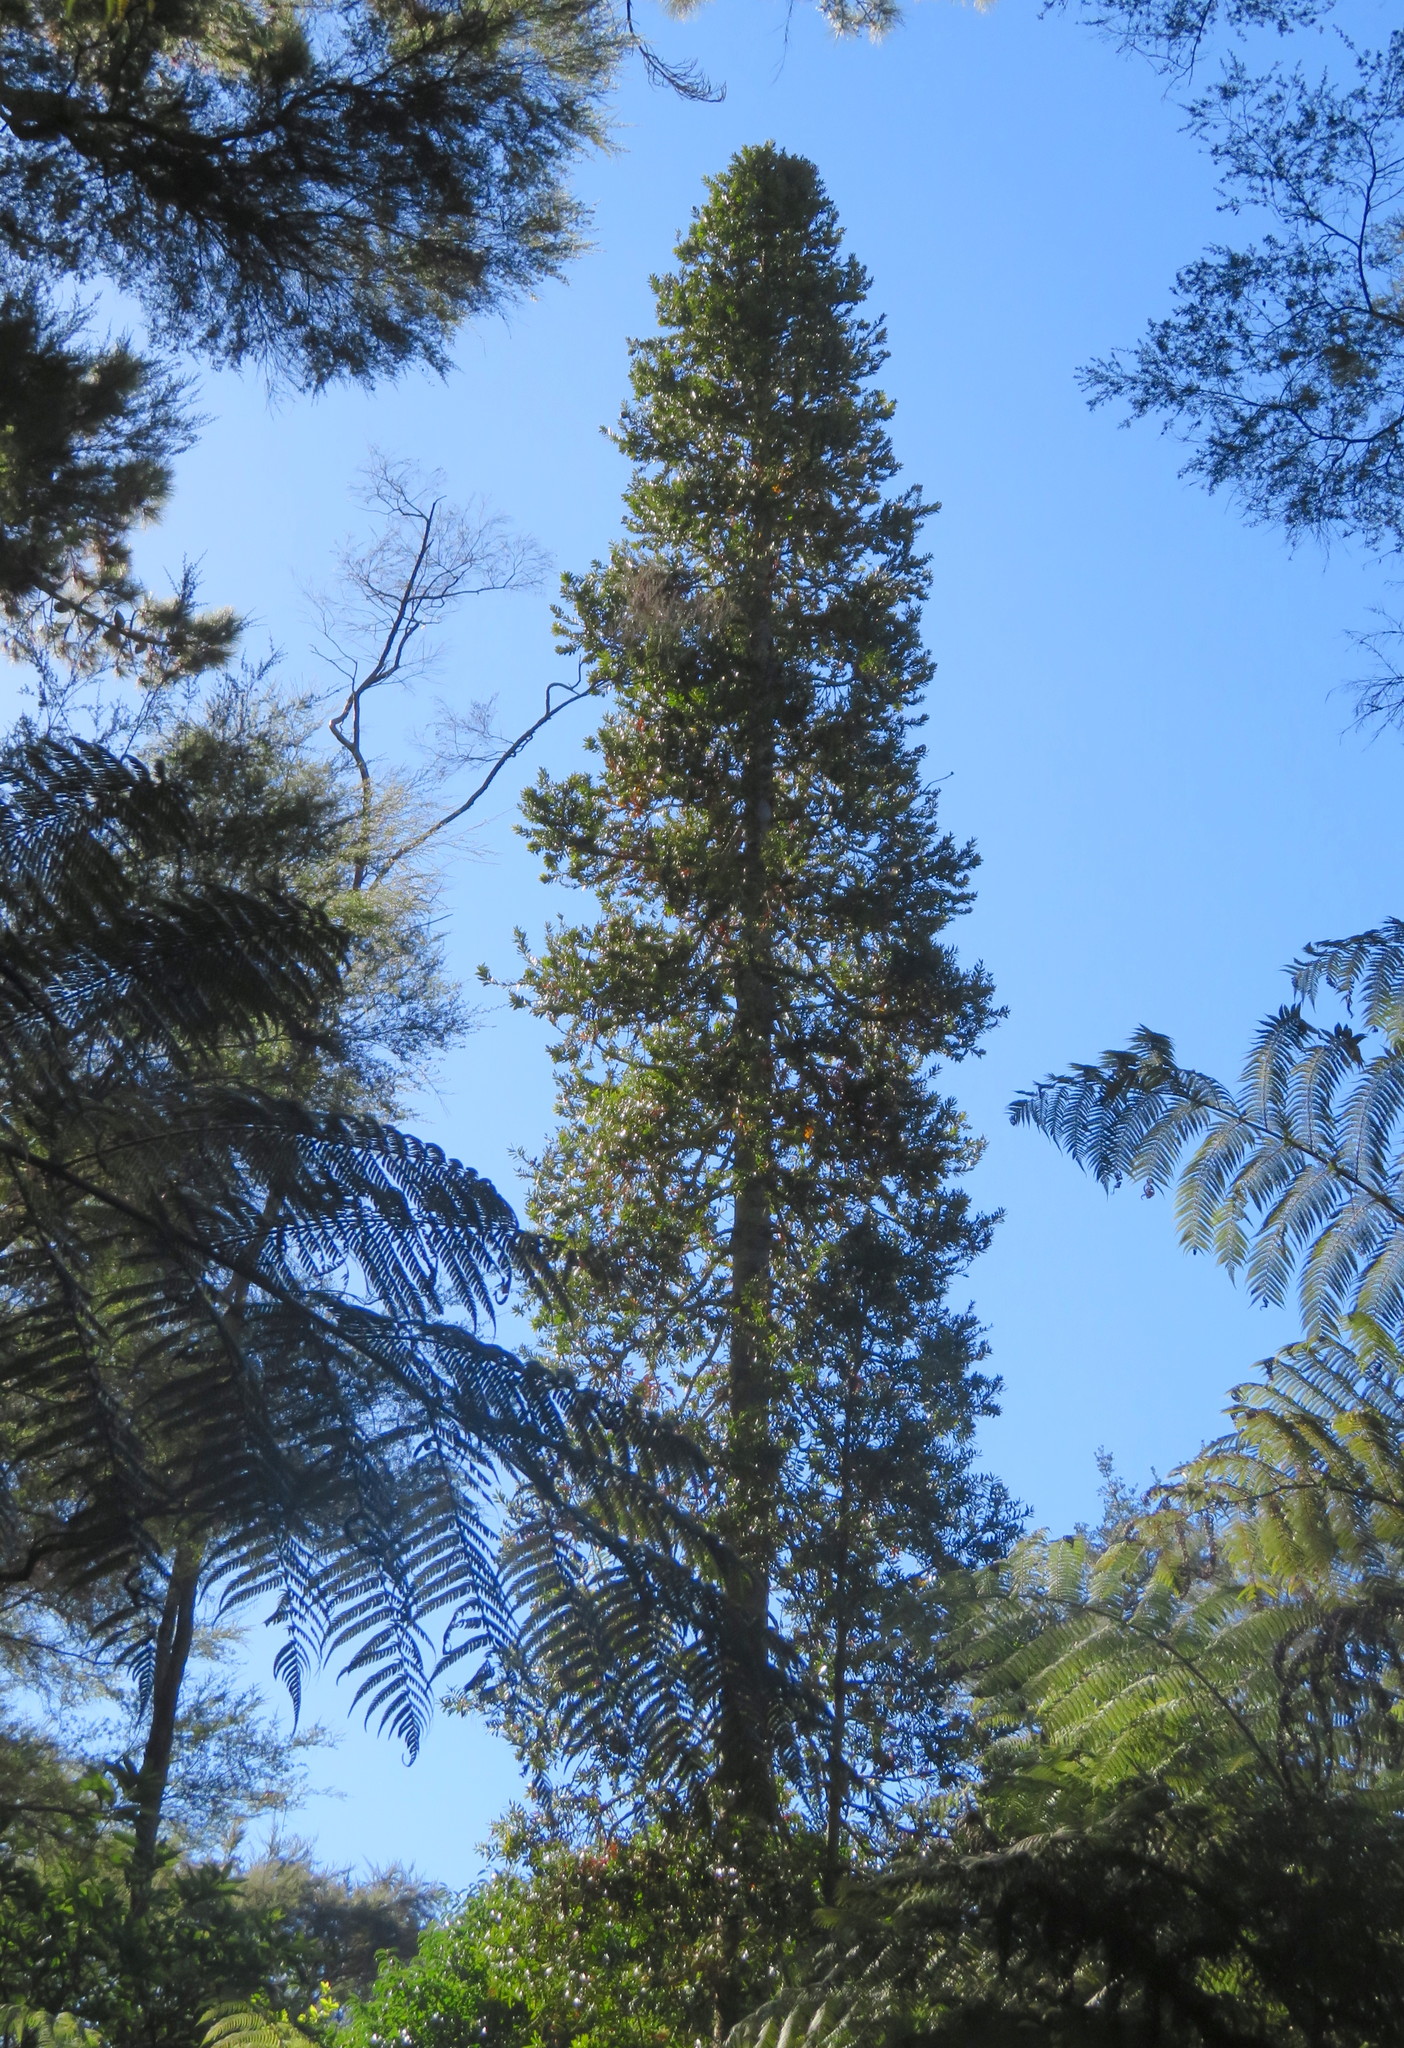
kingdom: Plantae
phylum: Tracheophyta
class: Pinopsida
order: Pinales
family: Araucariaceae
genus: Agathis
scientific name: Agathis australis
